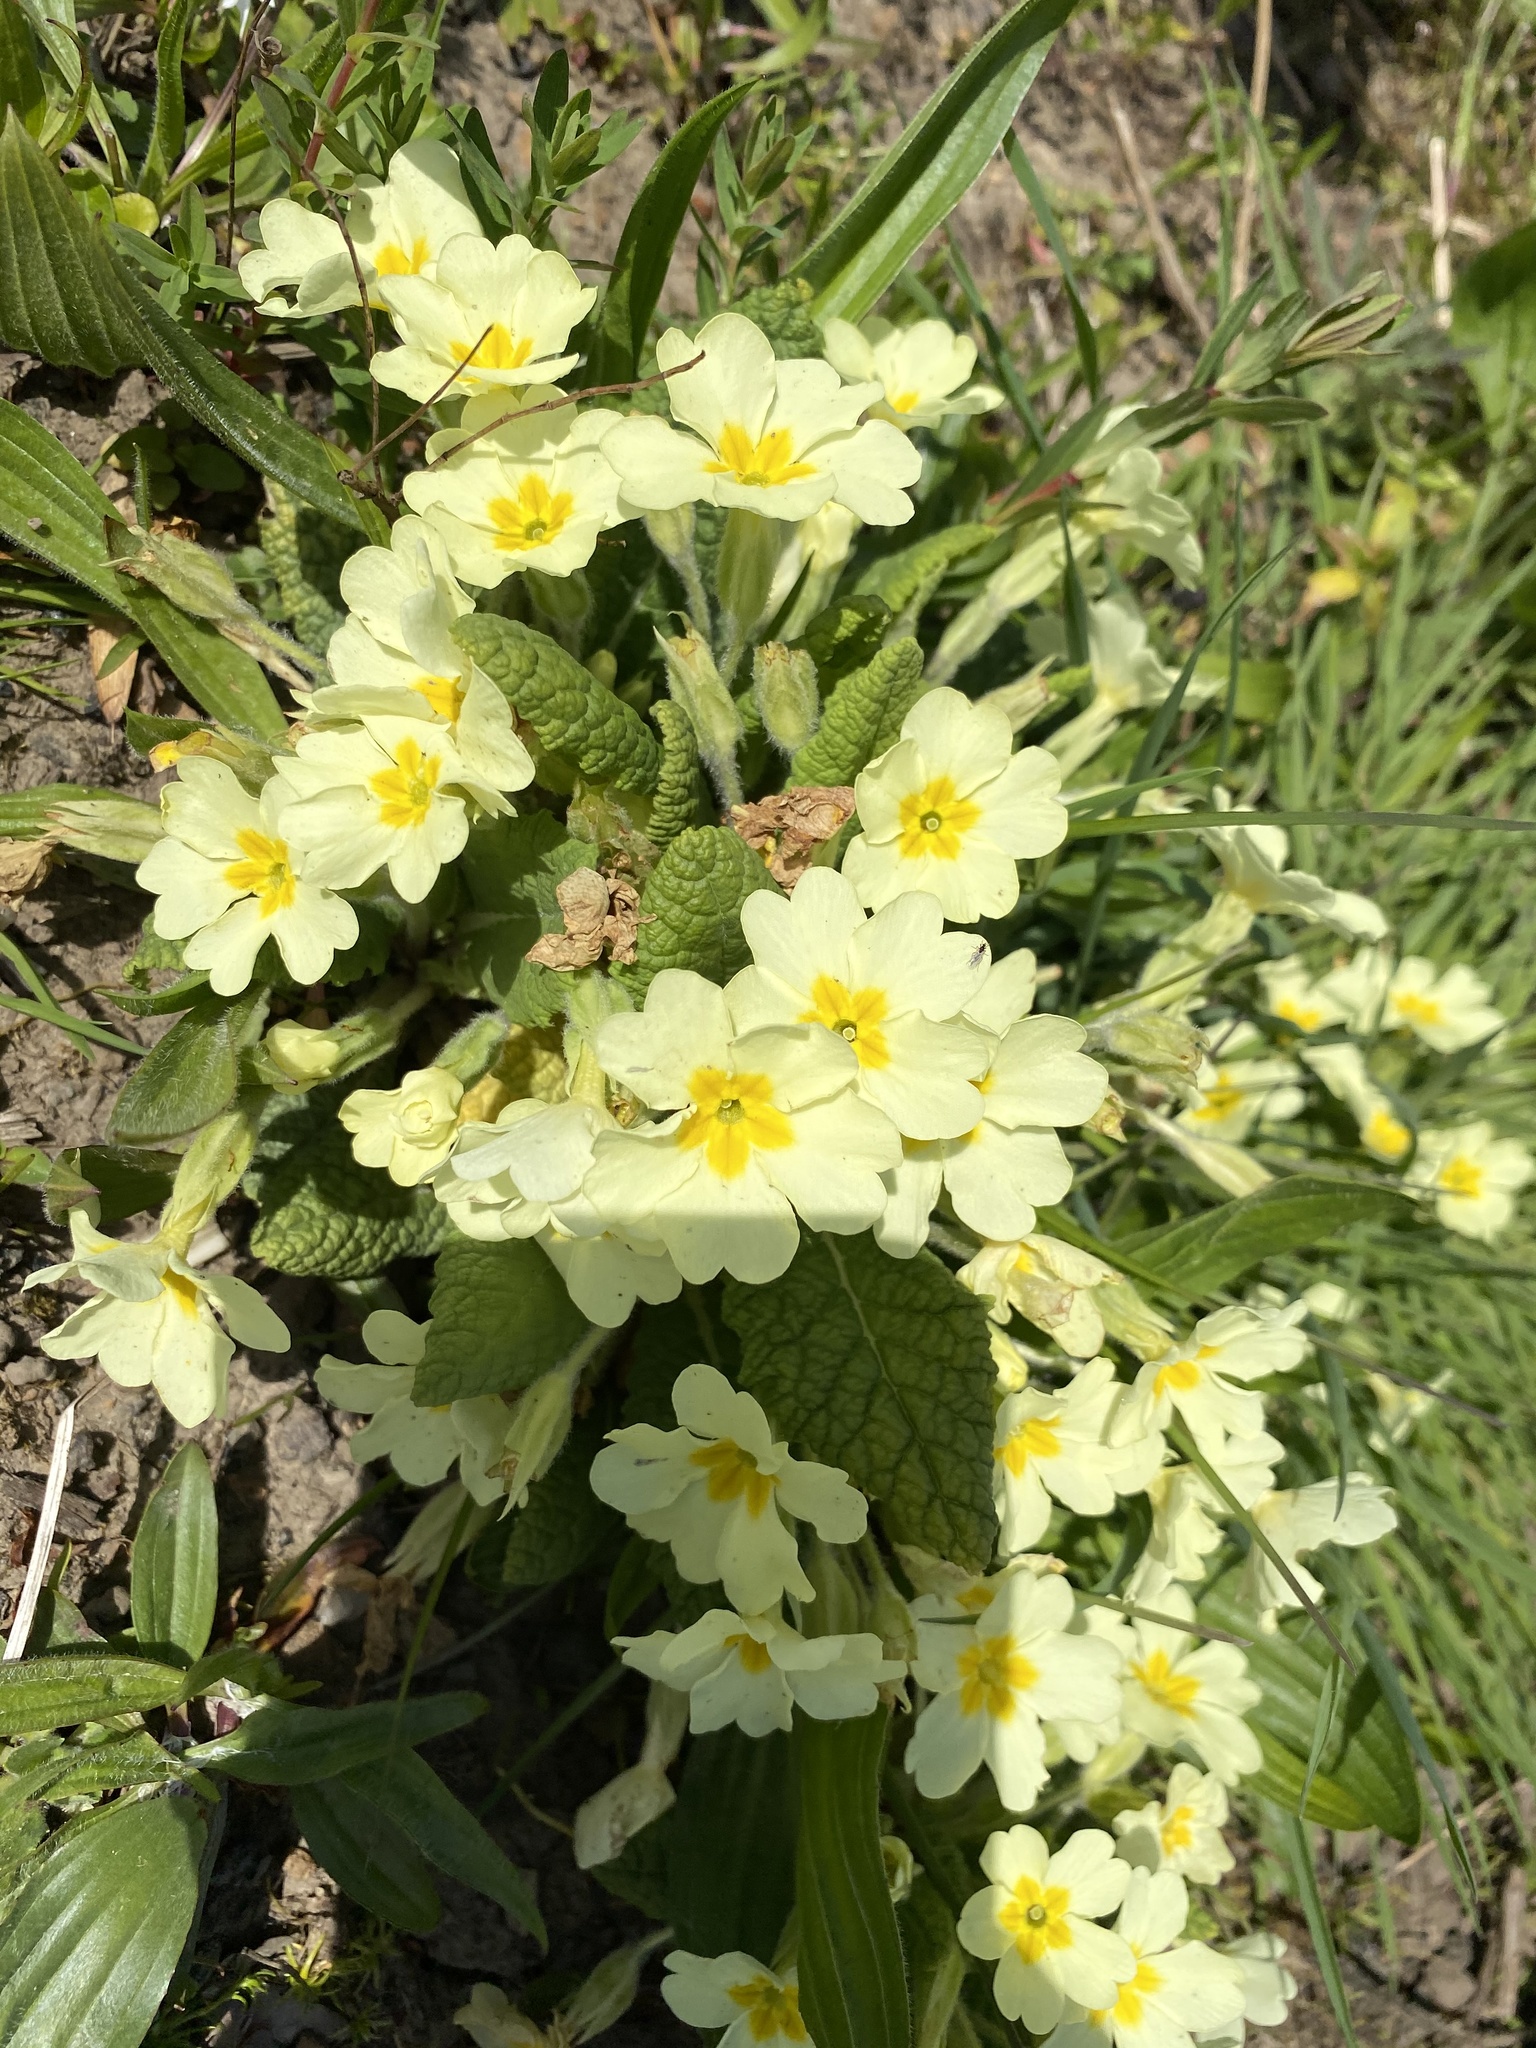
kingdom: Plantae
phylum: Tracheophyta
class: Magnoliopsida
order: Ericales
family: Primulaceae
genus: Primula
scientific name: Primula vulgaris
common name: Primrose
